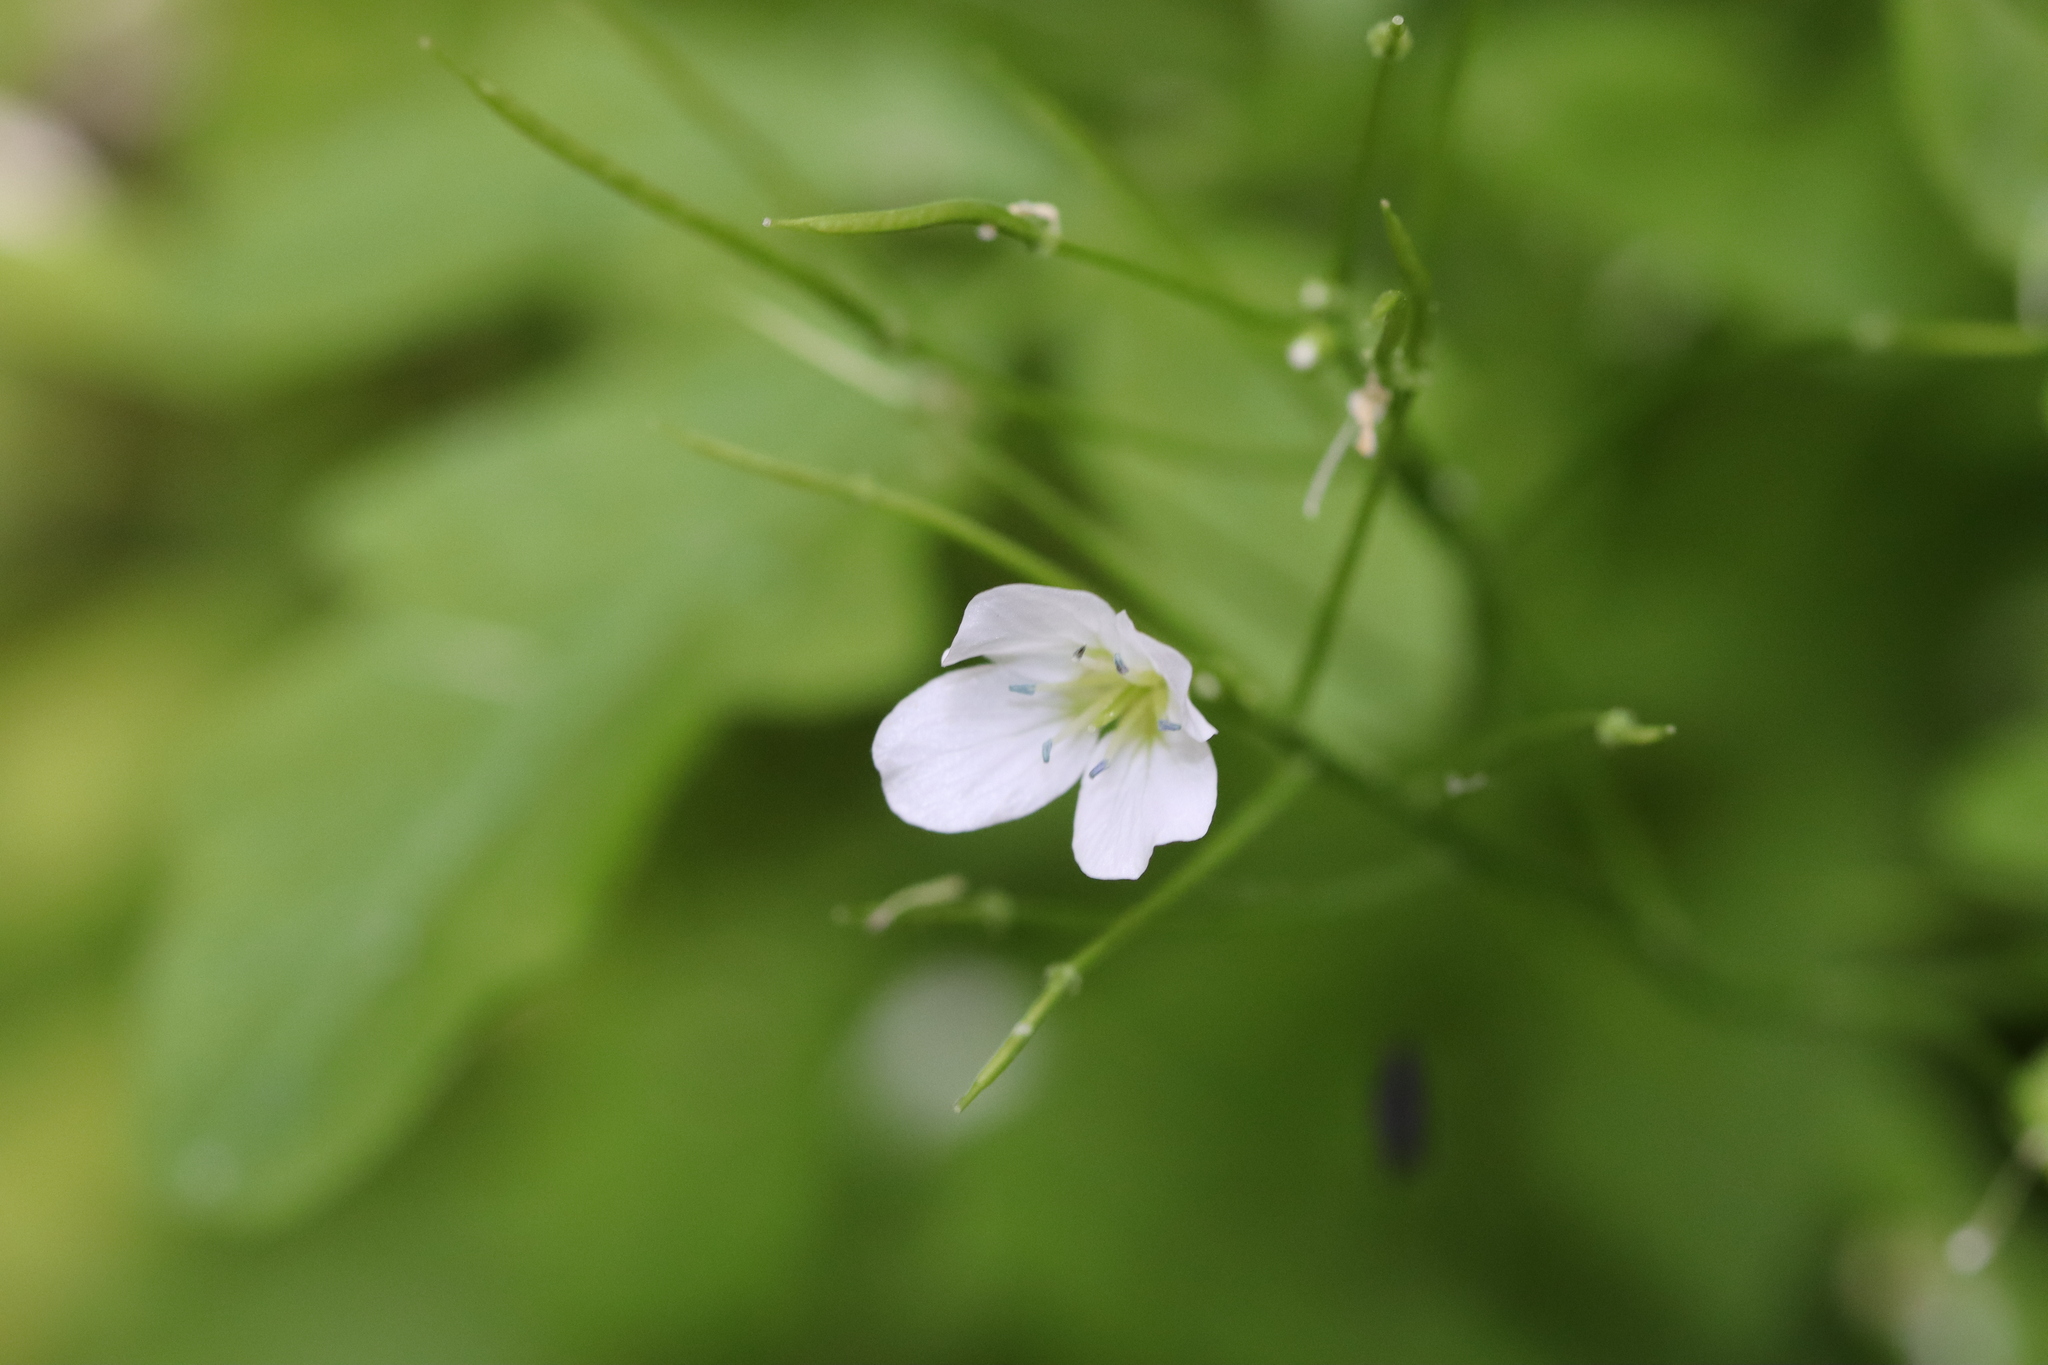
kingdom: Plantae
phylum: Tracheophyta
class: Magnoliopsida
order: Brassicales
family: Brassicaceae
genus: Cardamine
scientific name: Cardamine amara
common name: Large bitter-cress
